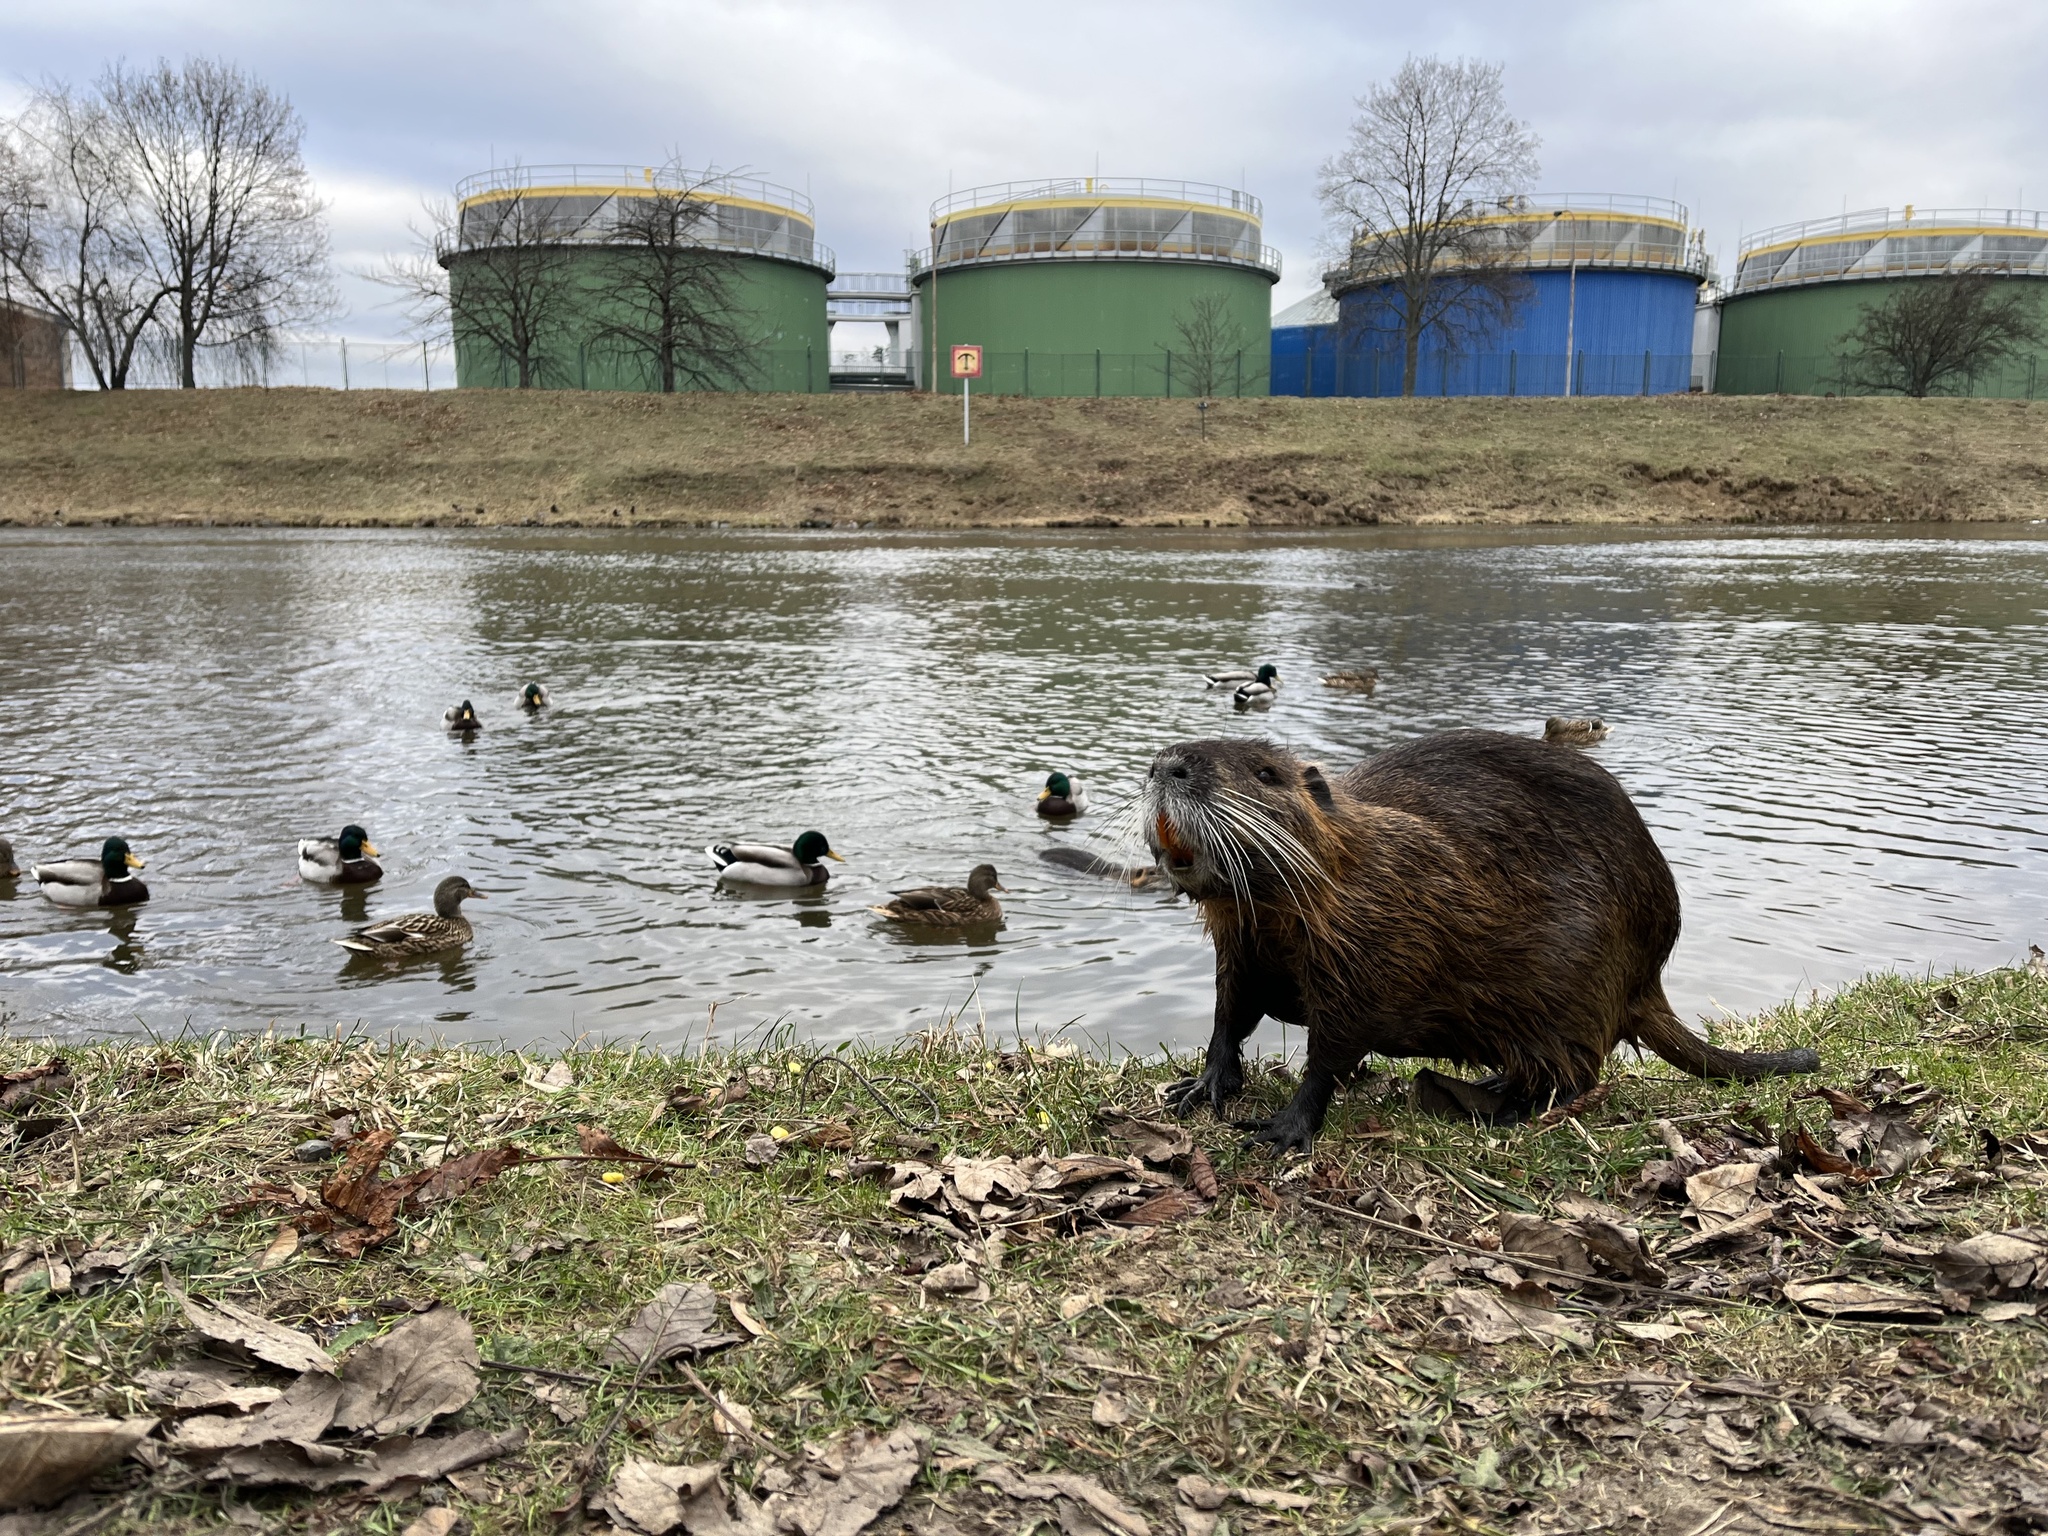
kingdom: Animalia
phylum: Chordata
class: Mammalia
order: Rodentia
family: Myocastoridae
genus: Myocastor
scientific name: Myocastor coypus
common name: Coypu
